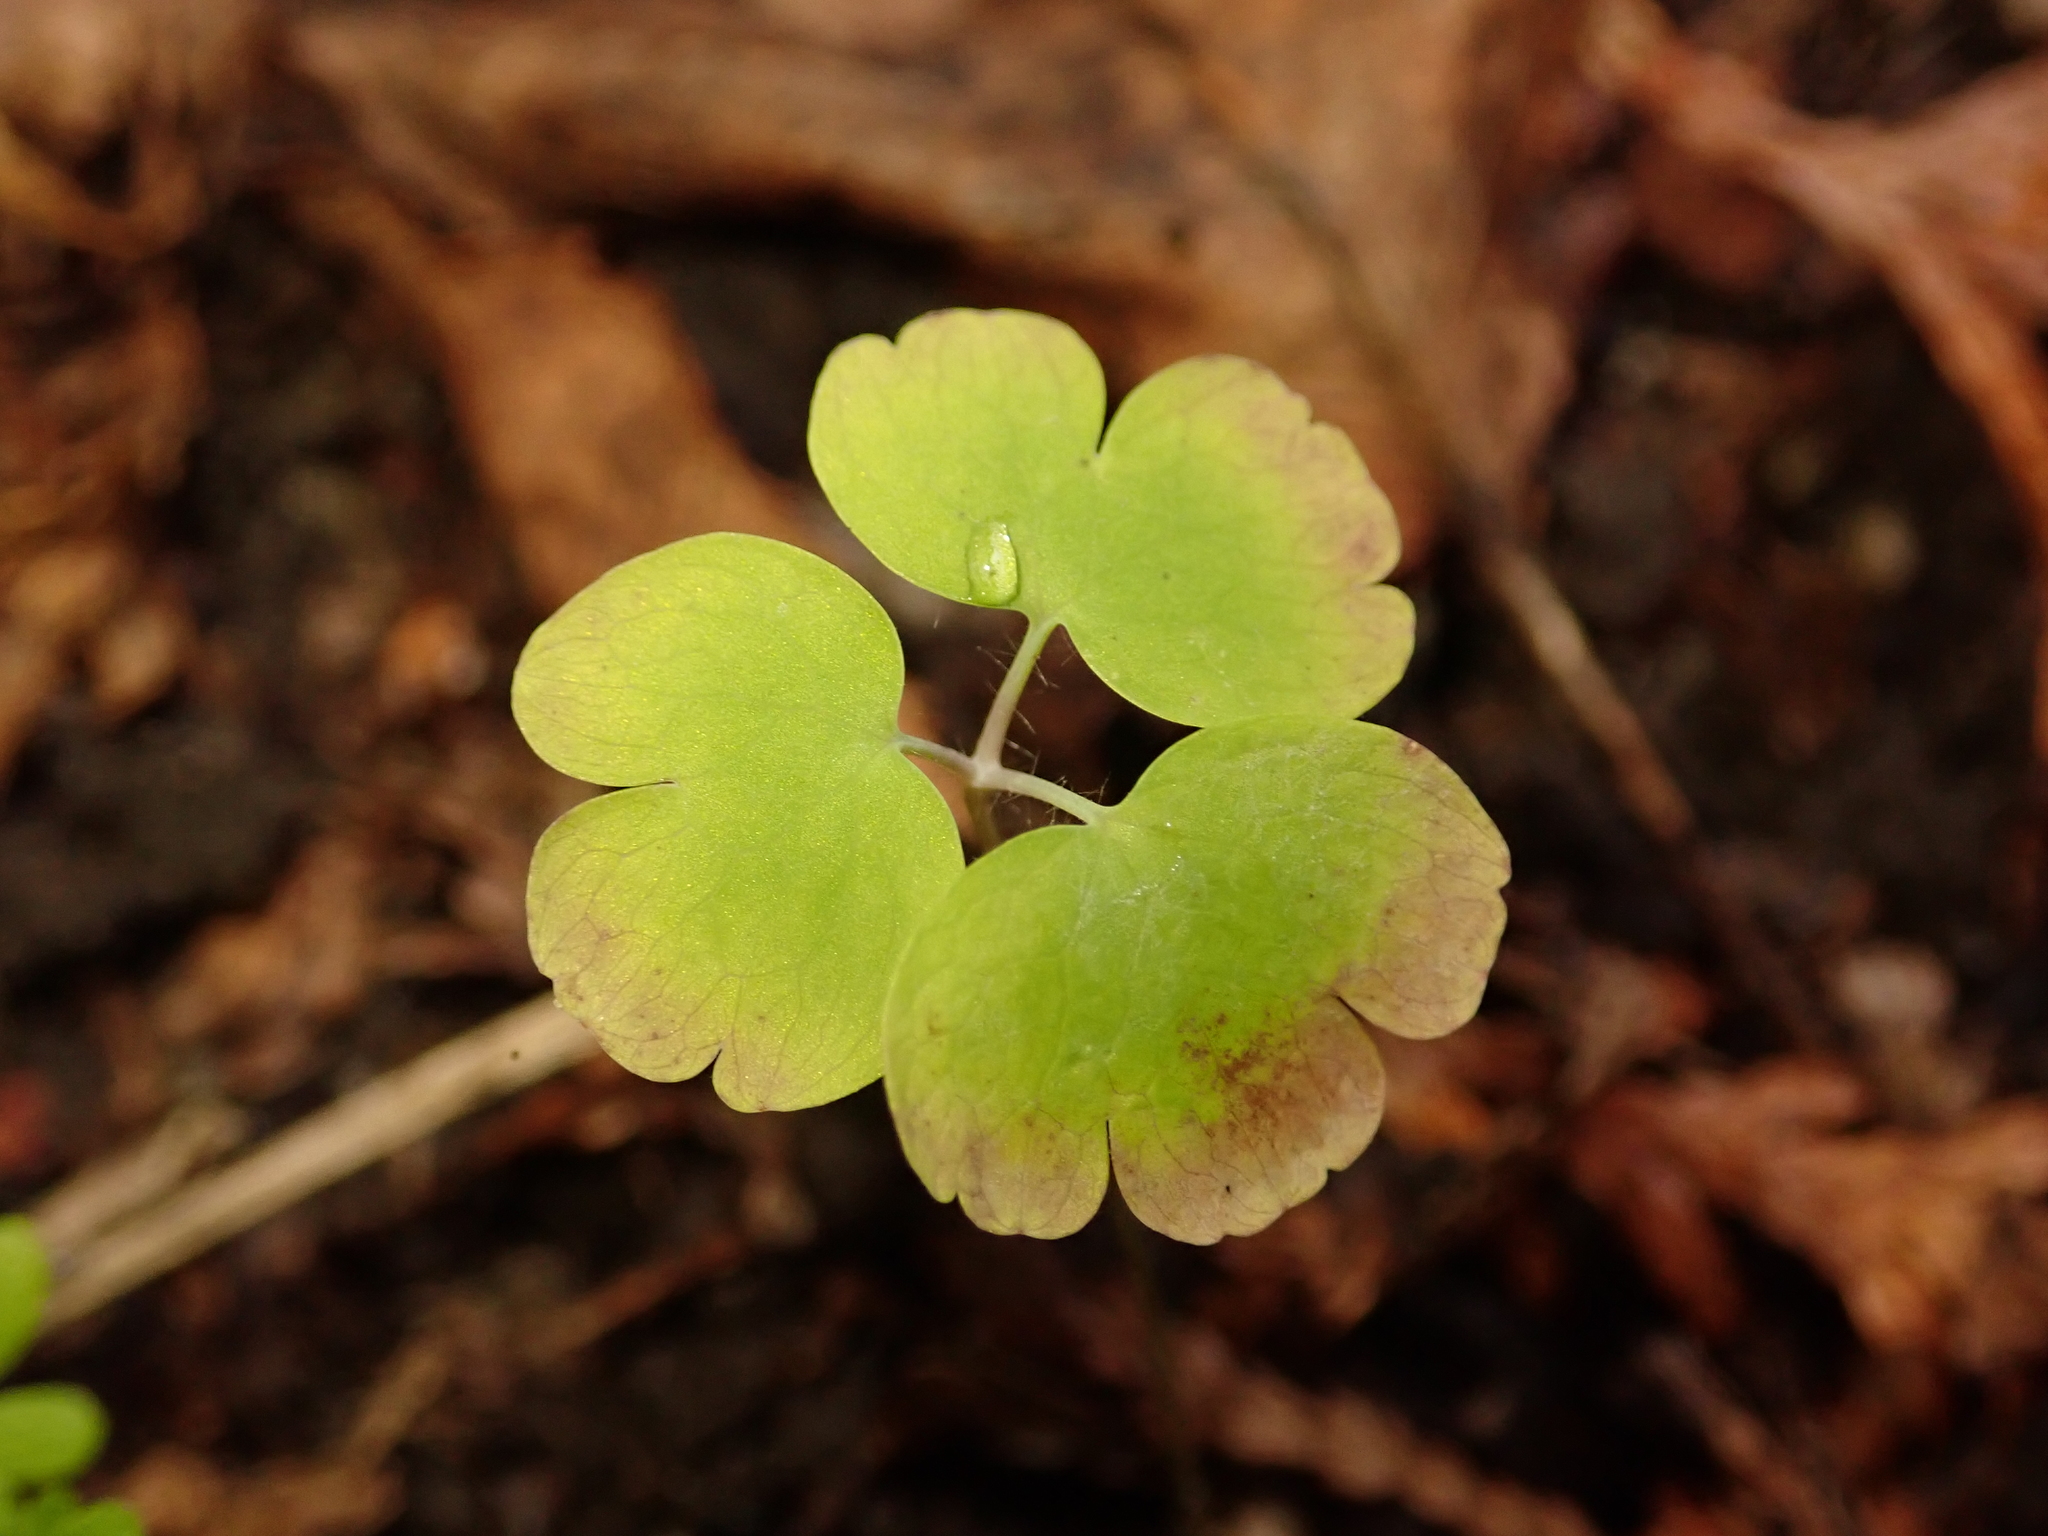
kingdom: Plantae
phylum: Tracheophyta
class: Magnoliopsida
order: Ranunculales
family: Ranunculaceae
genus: Aquilegia
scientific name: Aquilegia vulgaris
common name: Columbine
